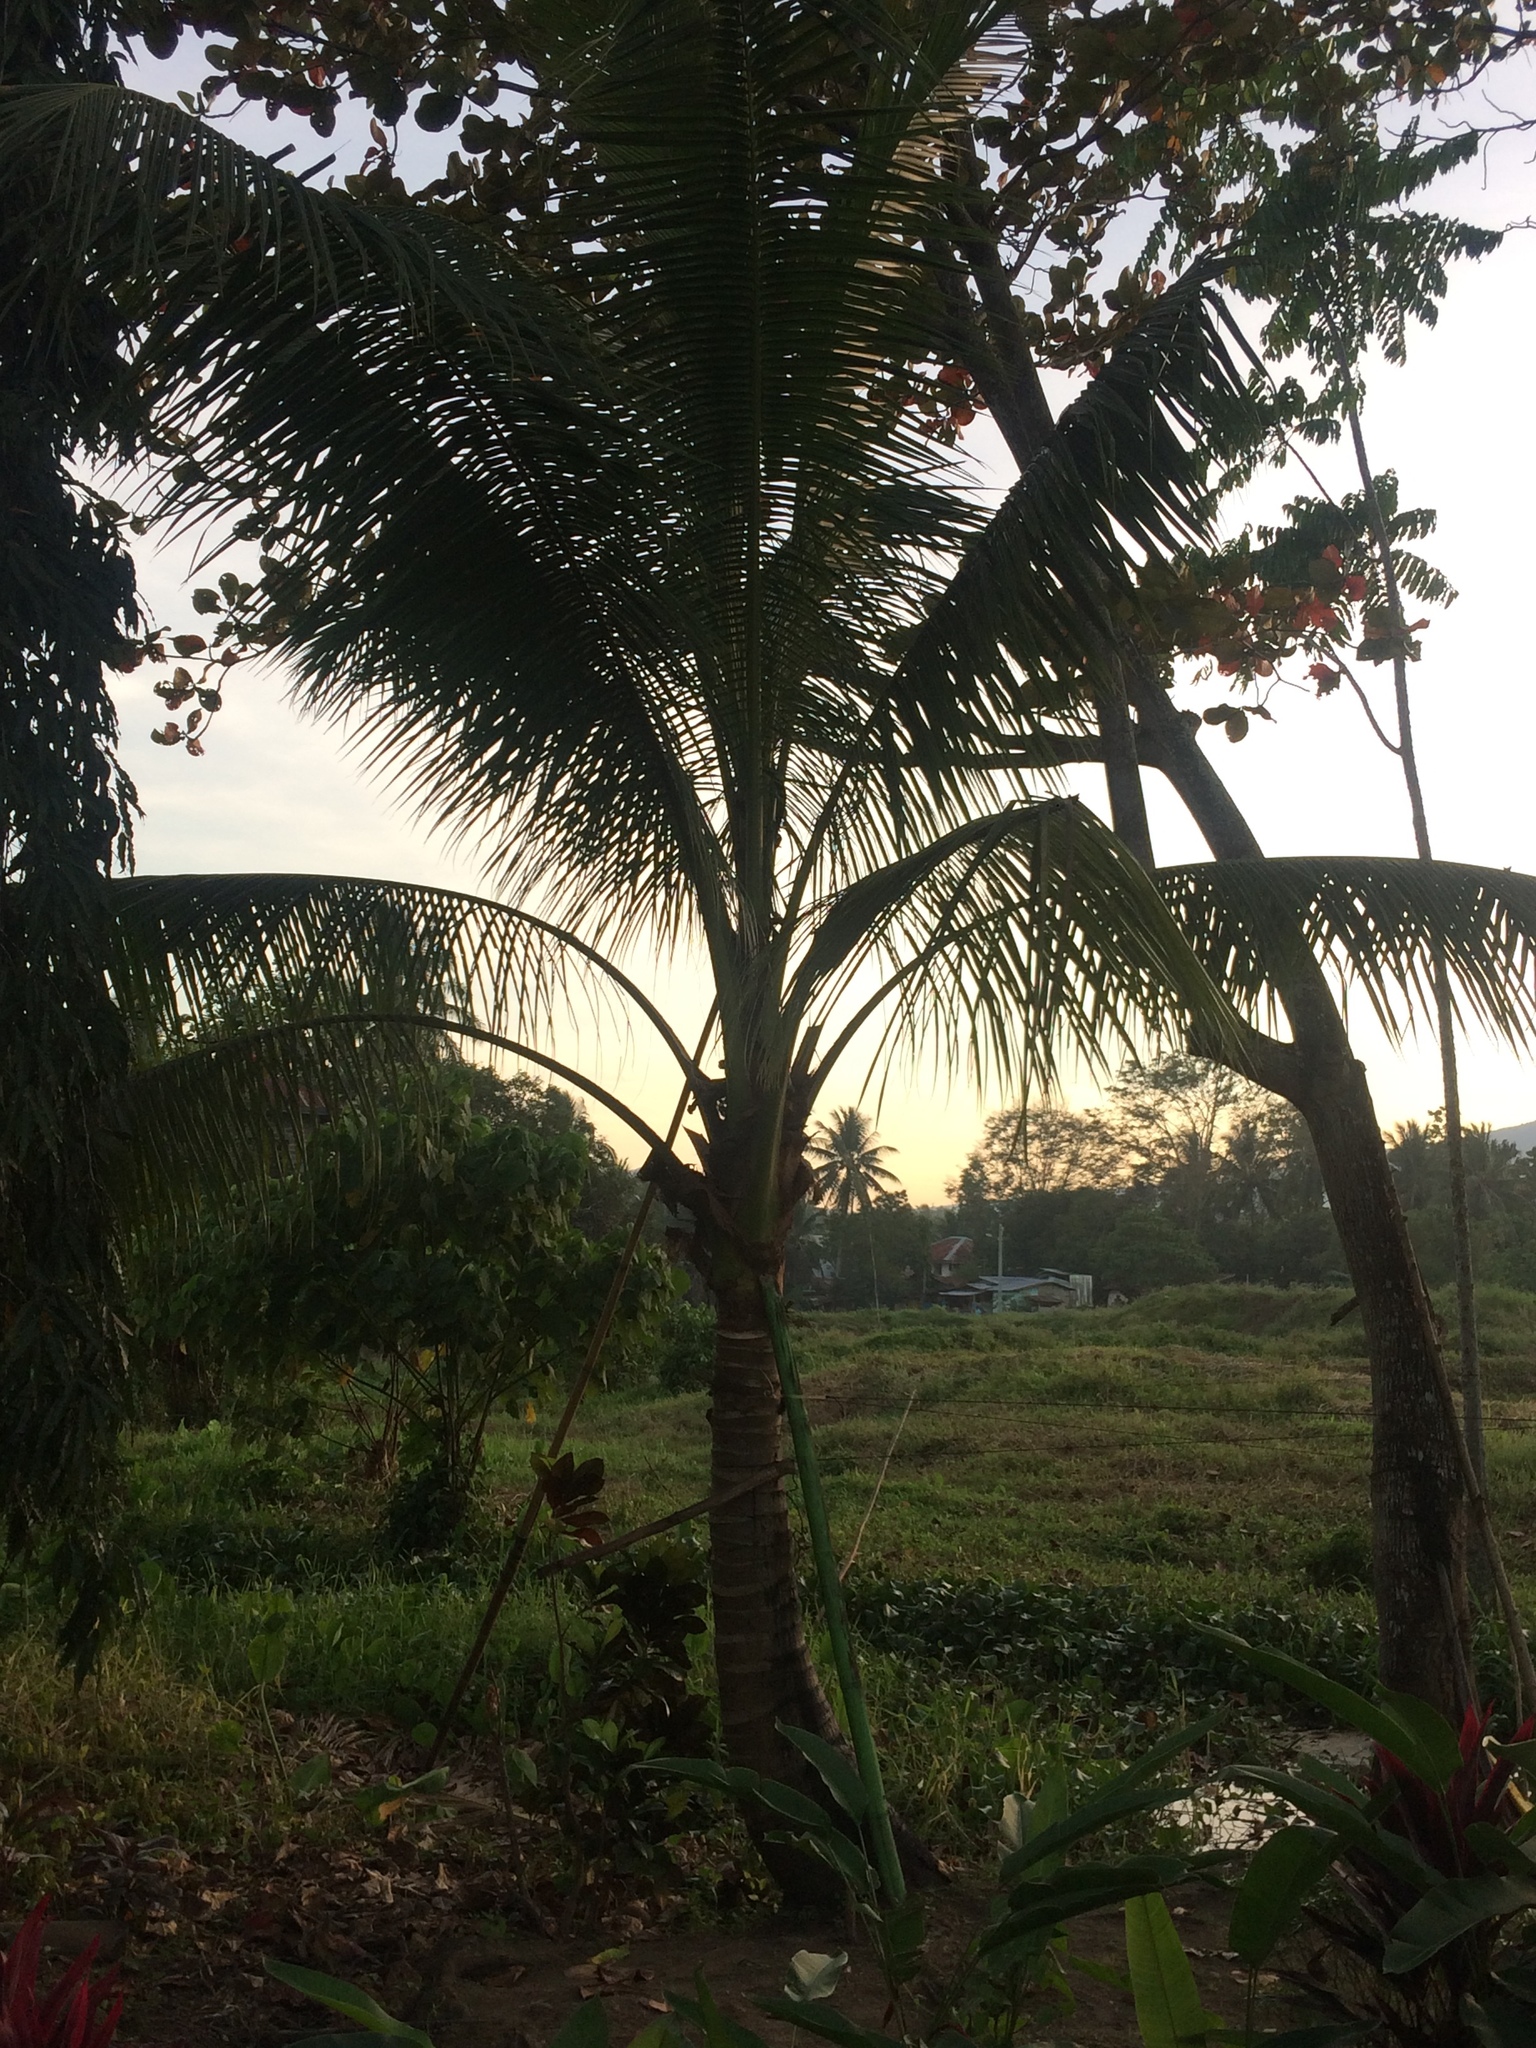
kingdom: Plantae
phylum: Tracheophyta
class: Liliopsida
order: Arecales
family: Arecaceae
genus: Cocos
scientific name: Cocos nucifera
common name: Coconut palm
